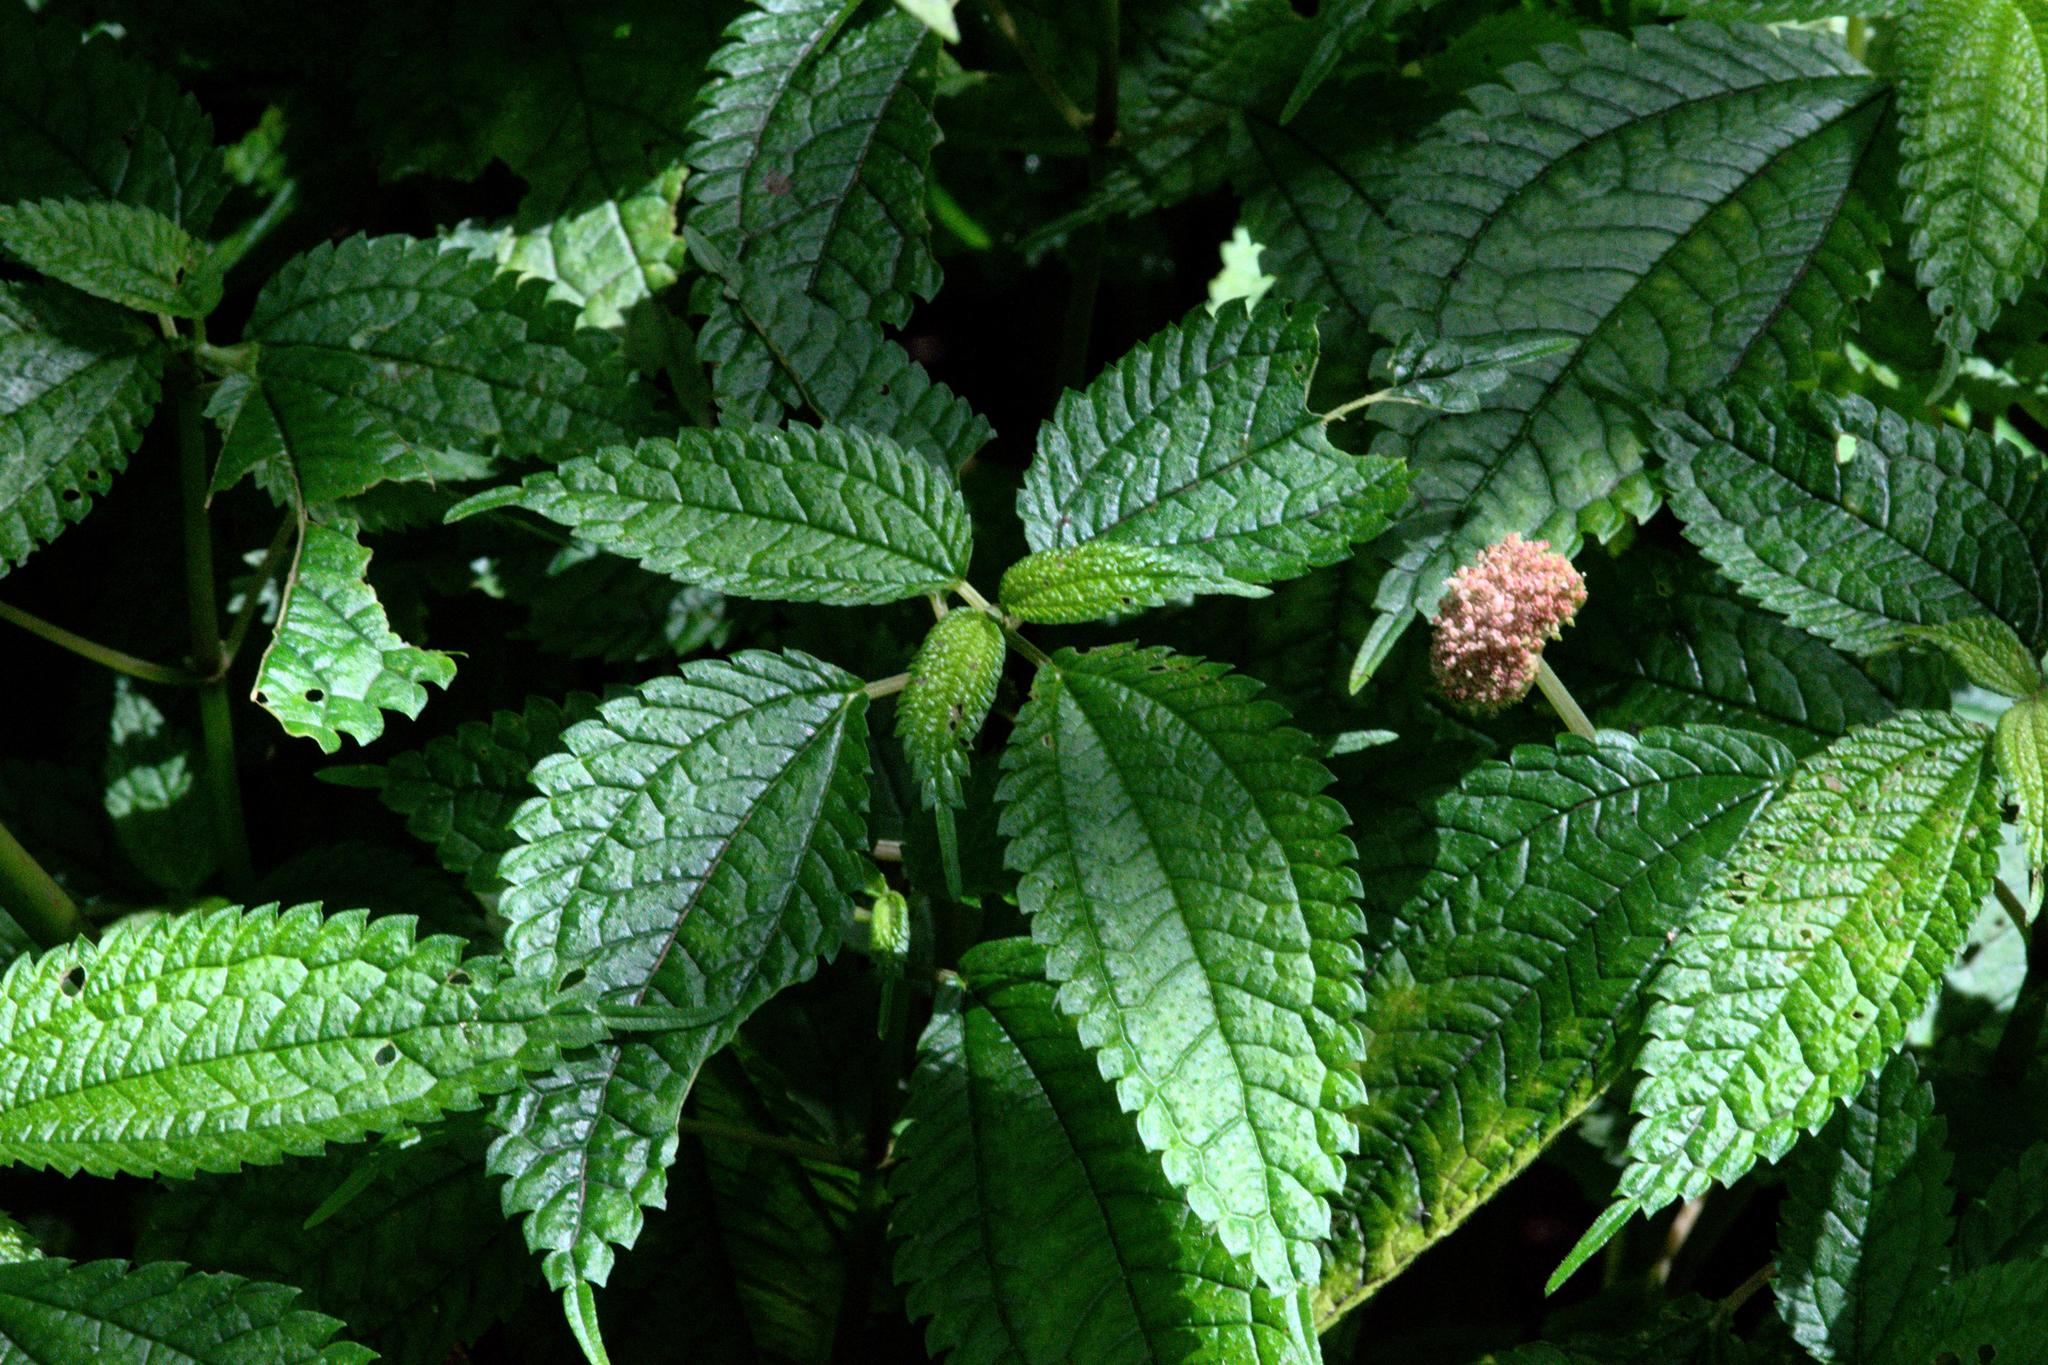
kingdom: Plantae
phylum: Tracheophyta
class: Magnoliopsida
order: Rosales
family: Urticaceae
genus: Lecanthus
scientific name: Lecanthus peduncularis
